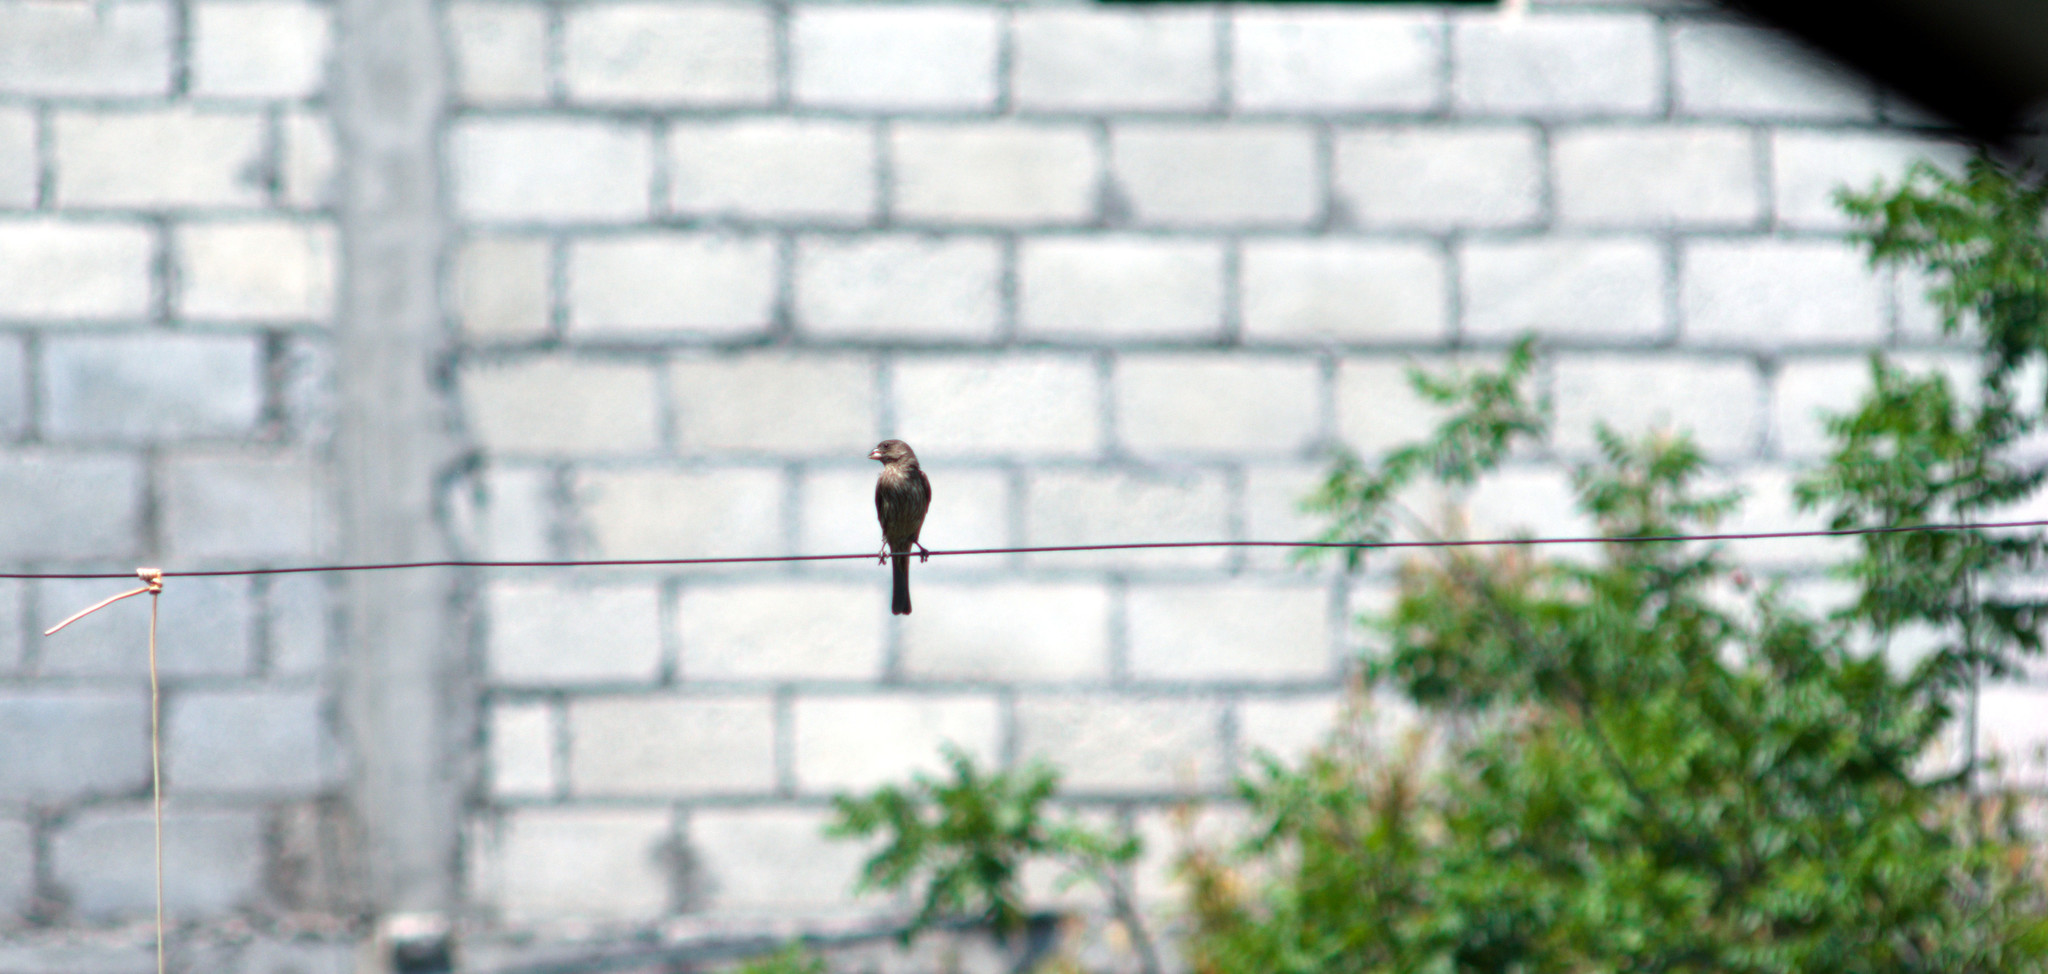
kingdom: Animalia
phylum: Chordata
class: Aves
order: Passeriformes
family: Fringillidae
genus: Haemorhous
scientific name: Haemorhous mexicanus
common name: House finch
